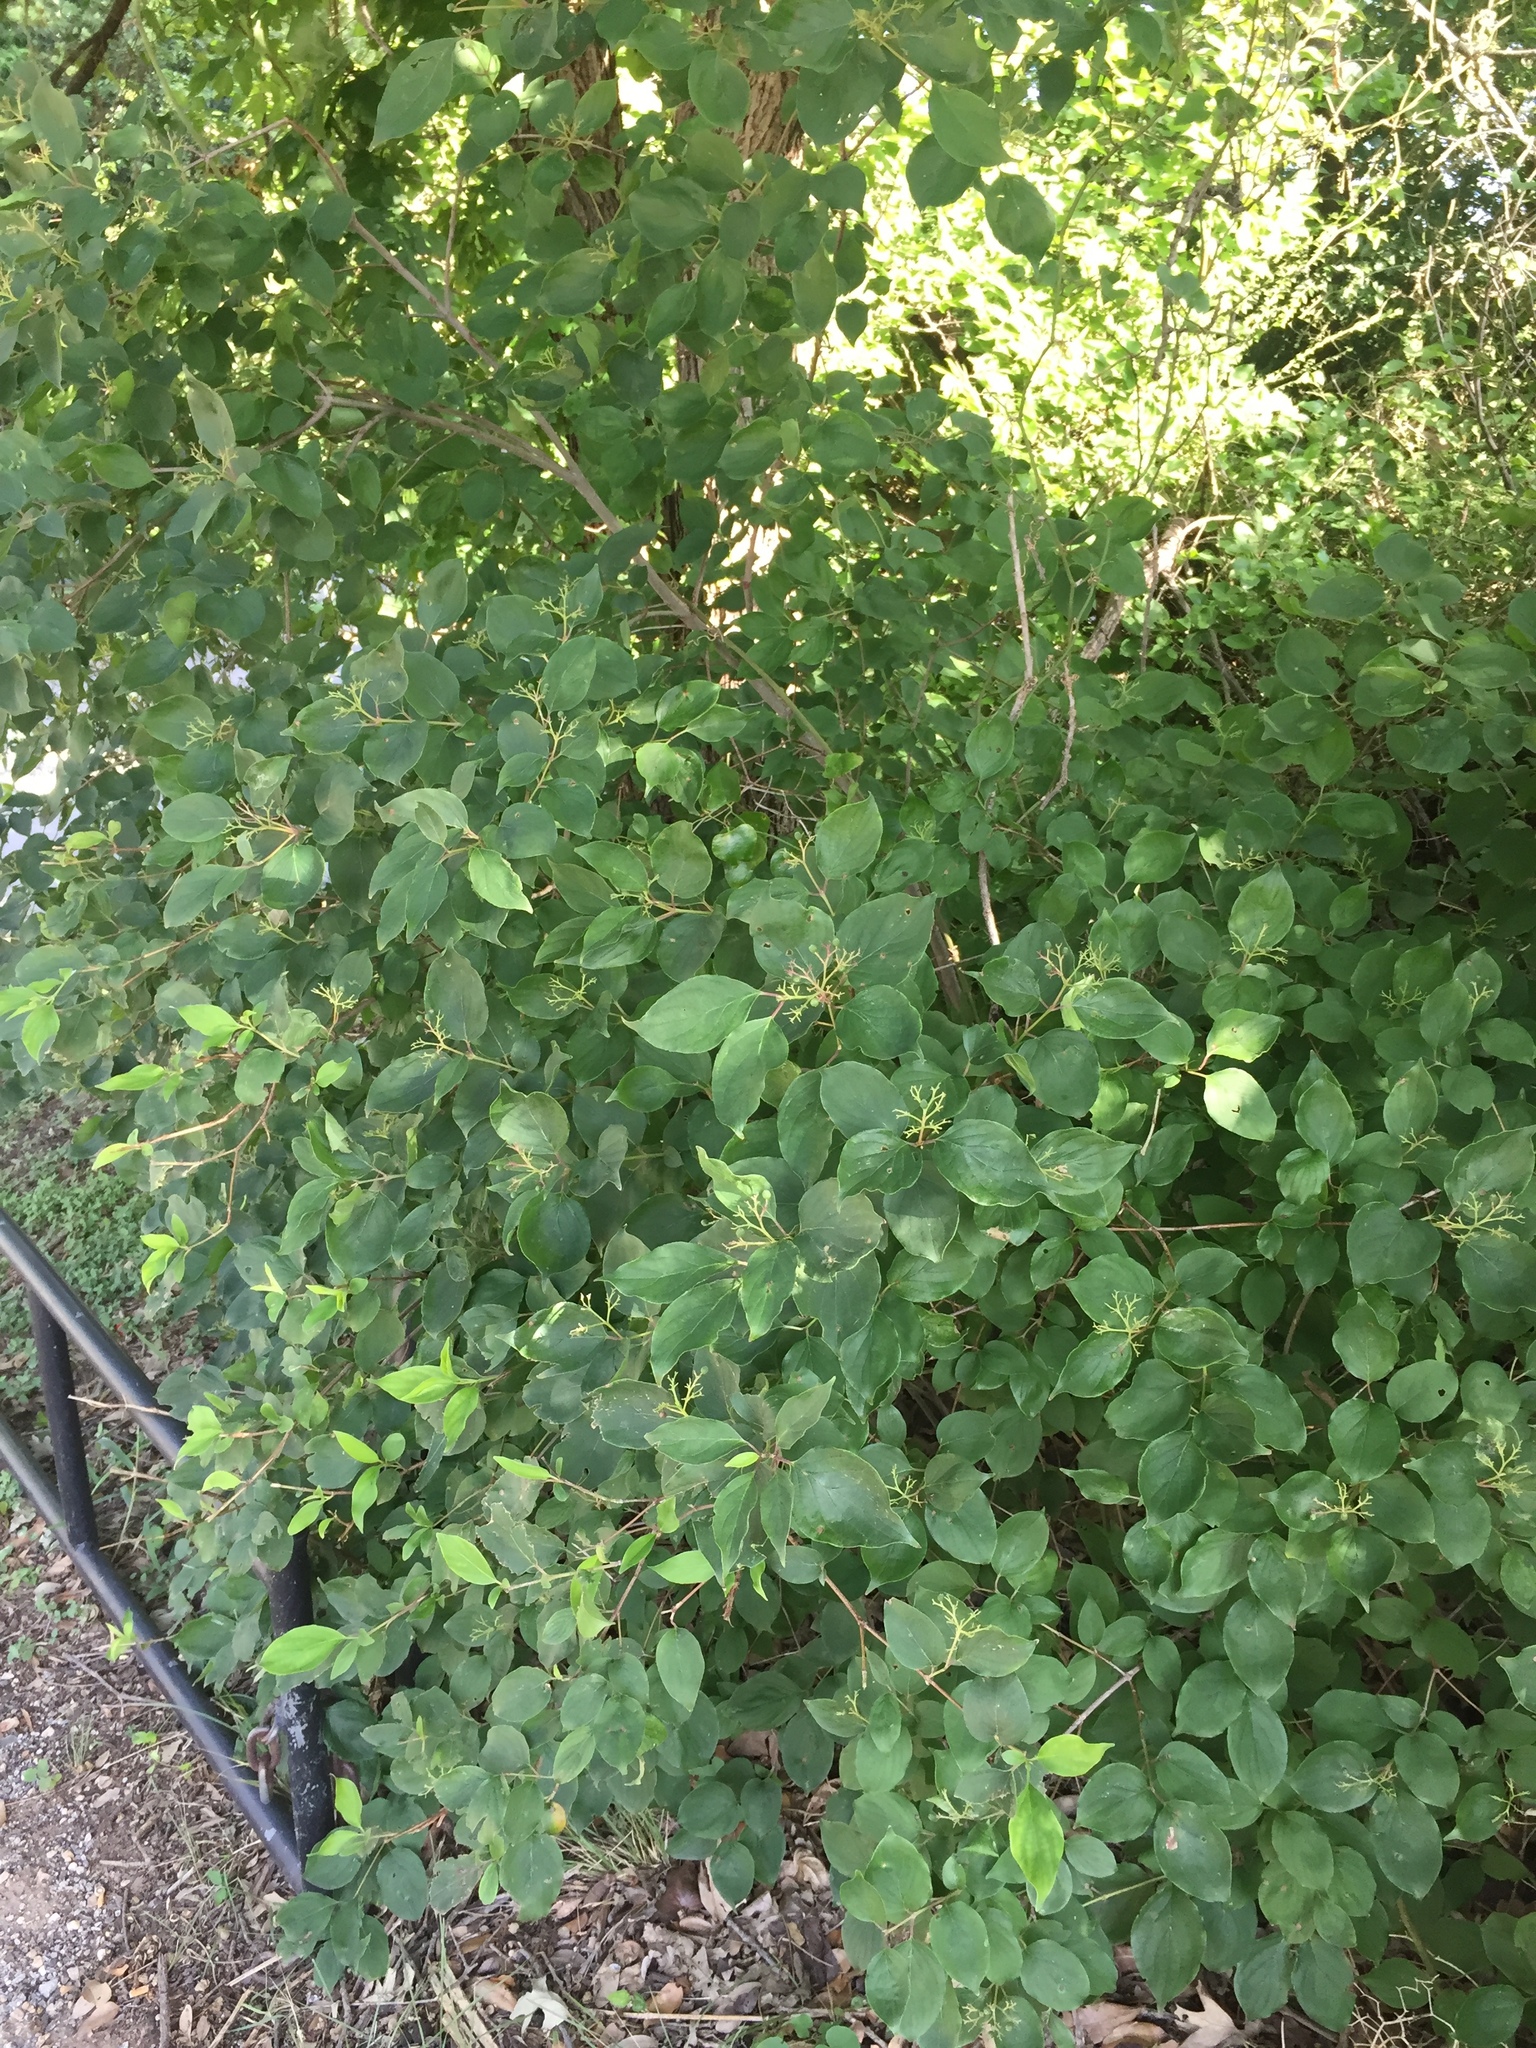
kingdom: Plantae
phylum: Tracheophyta
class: Magnoliopsida
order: Cornales
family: Cornaceae
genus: Cornus
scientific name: Cornus drummondii
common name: Rough-leaf dogwood
